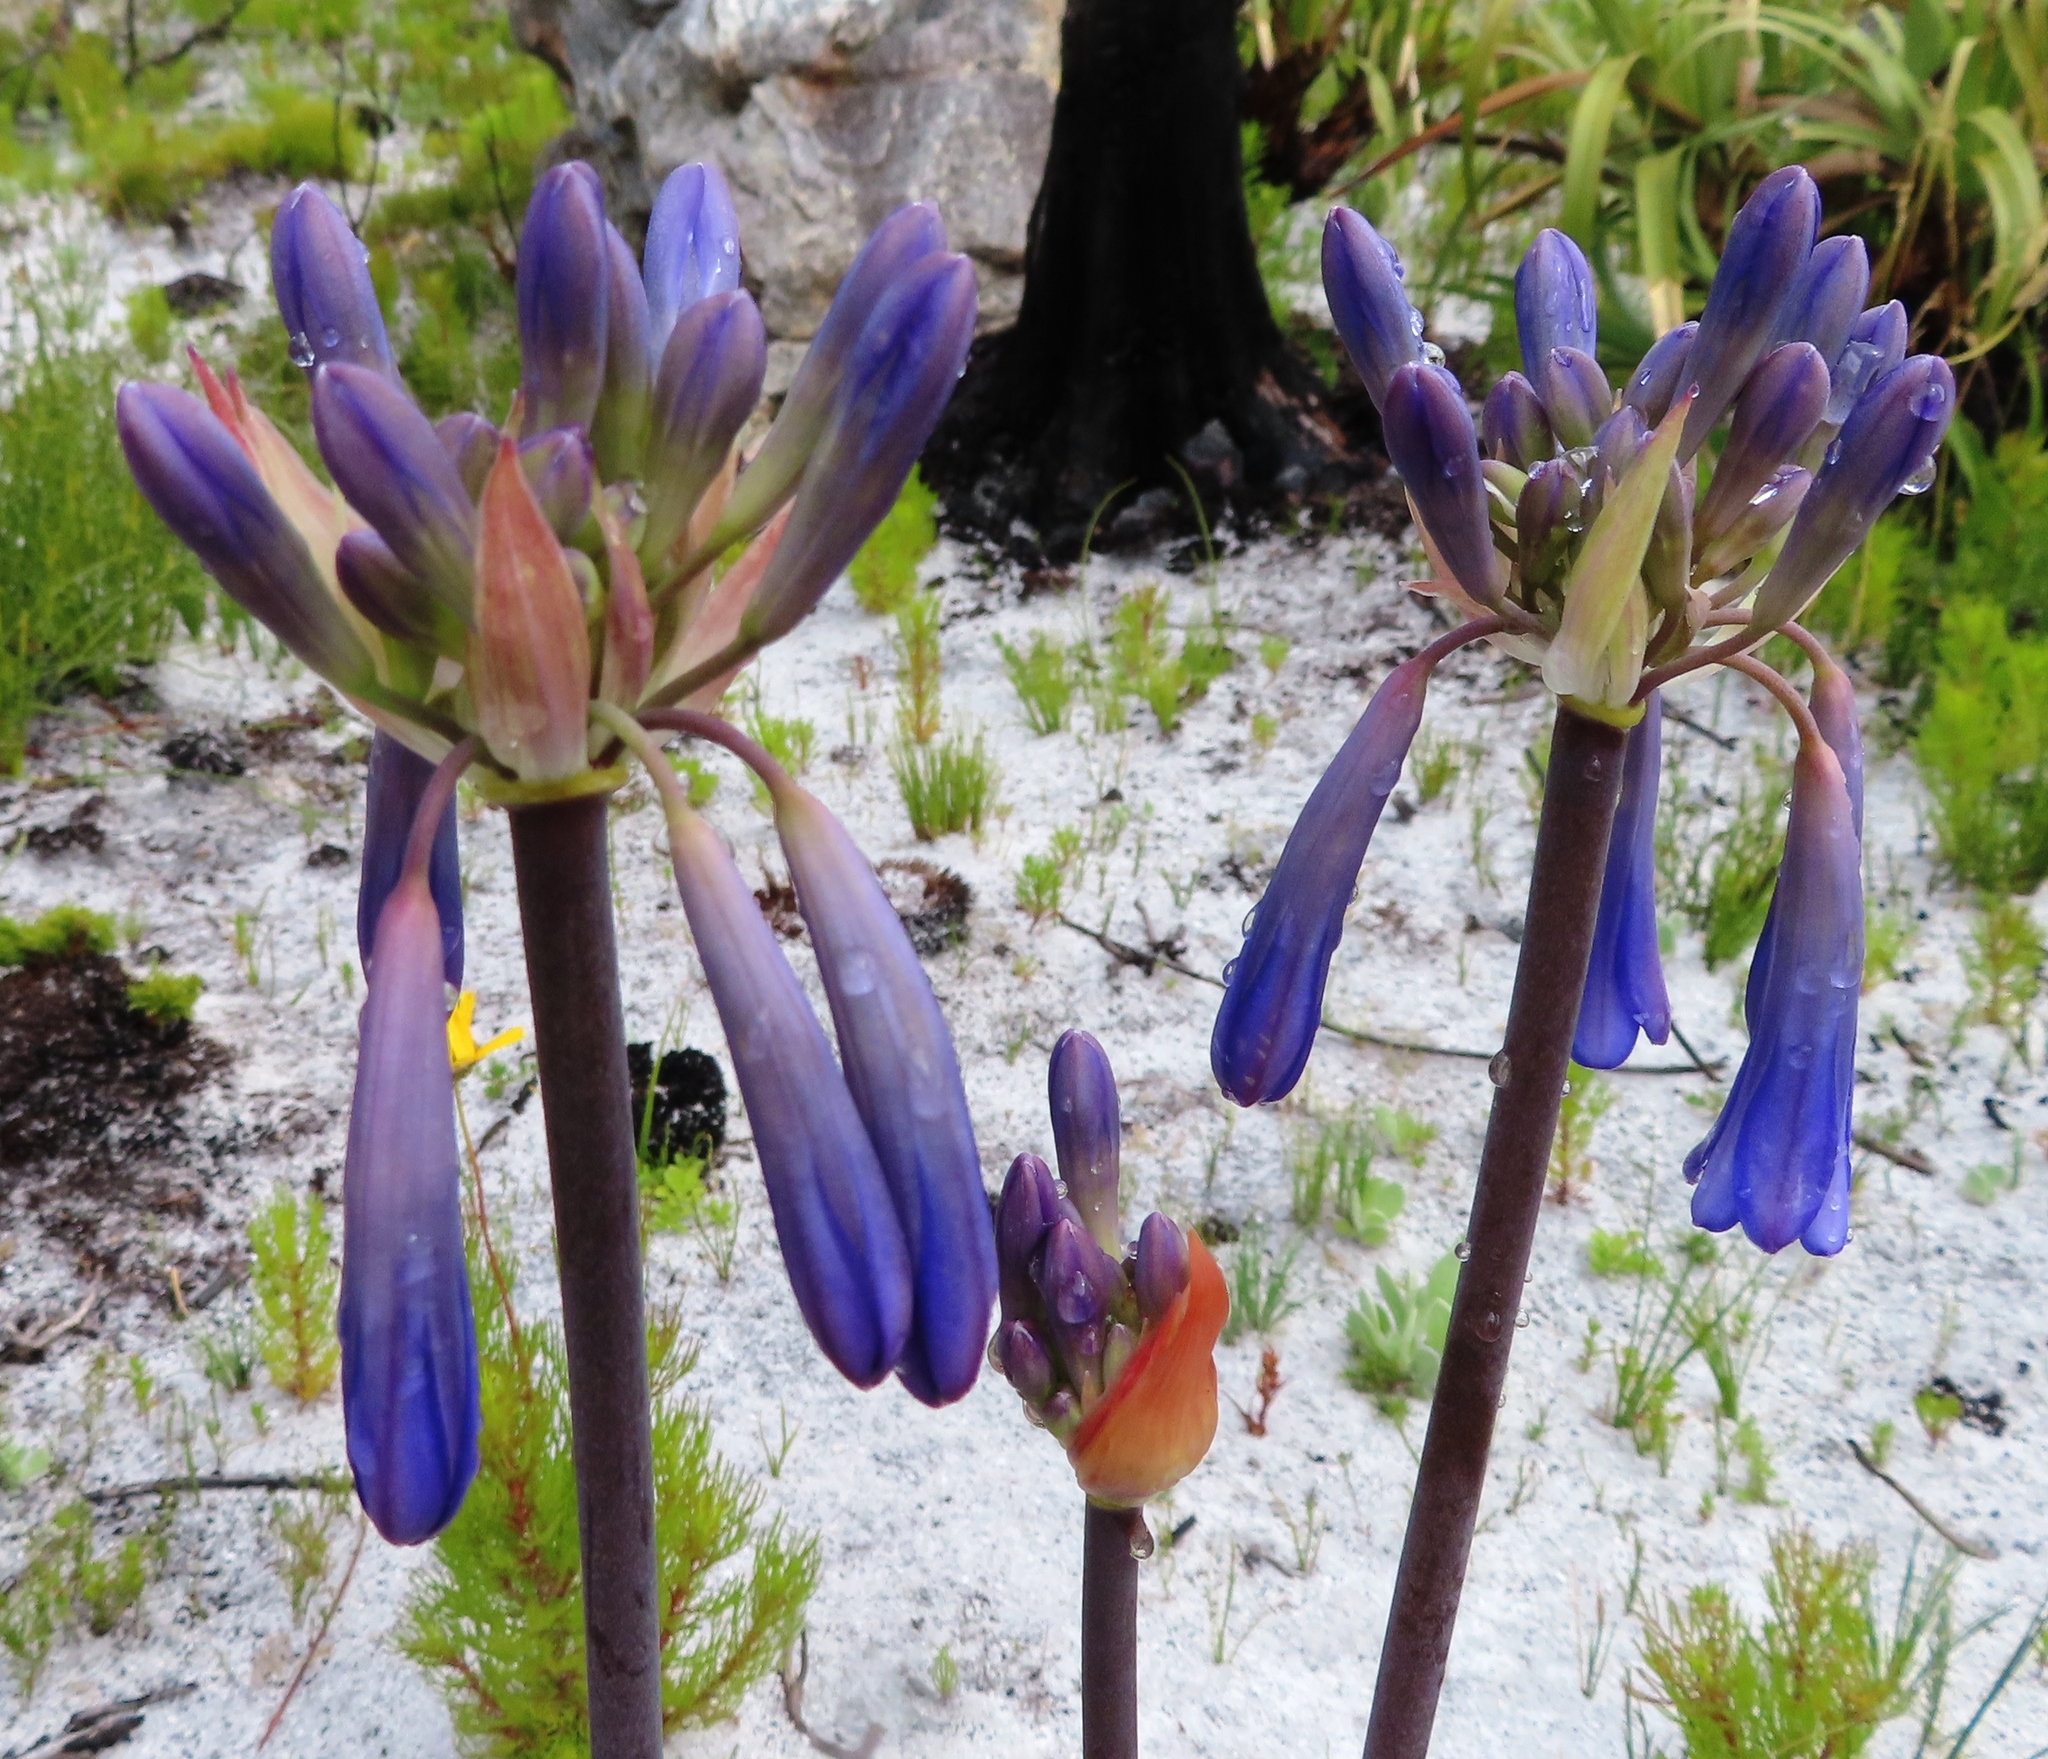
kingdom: Plantae
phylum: Tracheophyta
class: Liliopsida
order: Asparagales
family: Amaryllidaceae
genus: Agapanthus
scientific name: Agapanthus walshii
